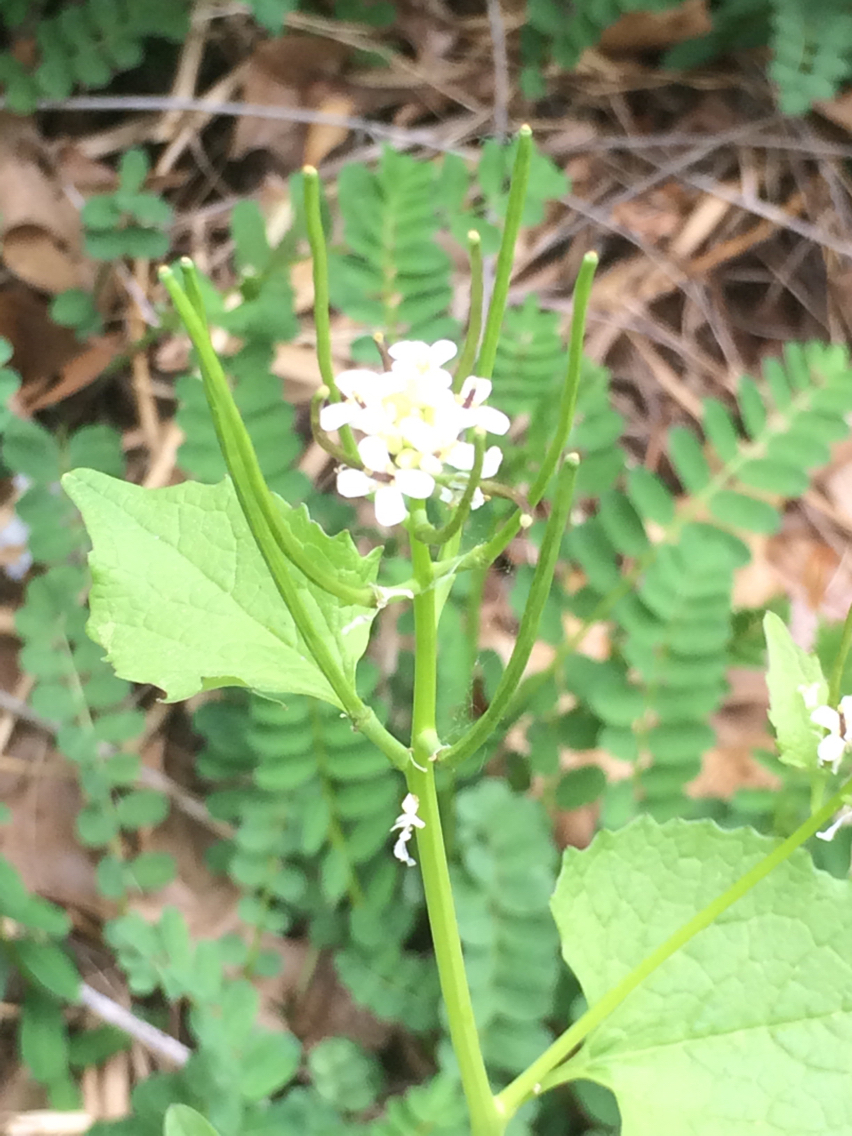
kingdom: Plantae
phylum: Tracheophyta
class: Magnoliopsida
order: Brassicales
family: Brassicaceae
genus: Alliaria
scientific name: Alliaria petiolata
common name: Garlic mustard
